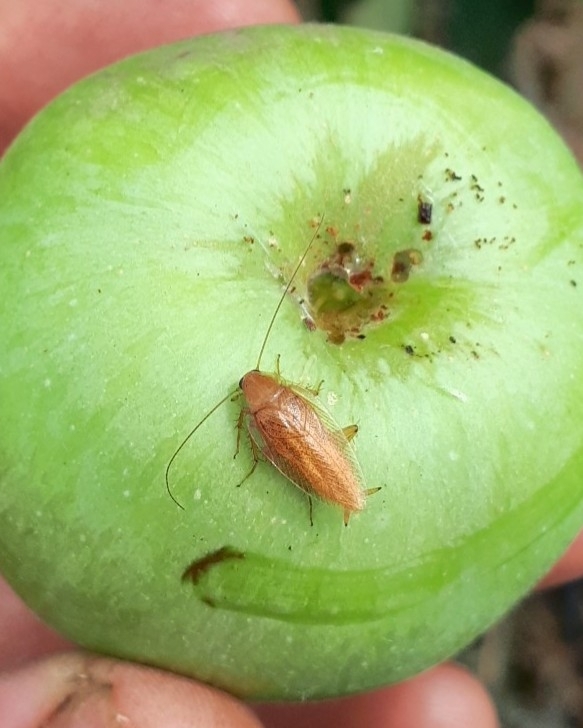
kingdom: Animalia
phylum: Arthropoda
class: Insecta
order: Blattodea
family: Ectobiidae
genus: Ectobius
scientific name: Ectobius pallidus
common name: Tawny cockroach
